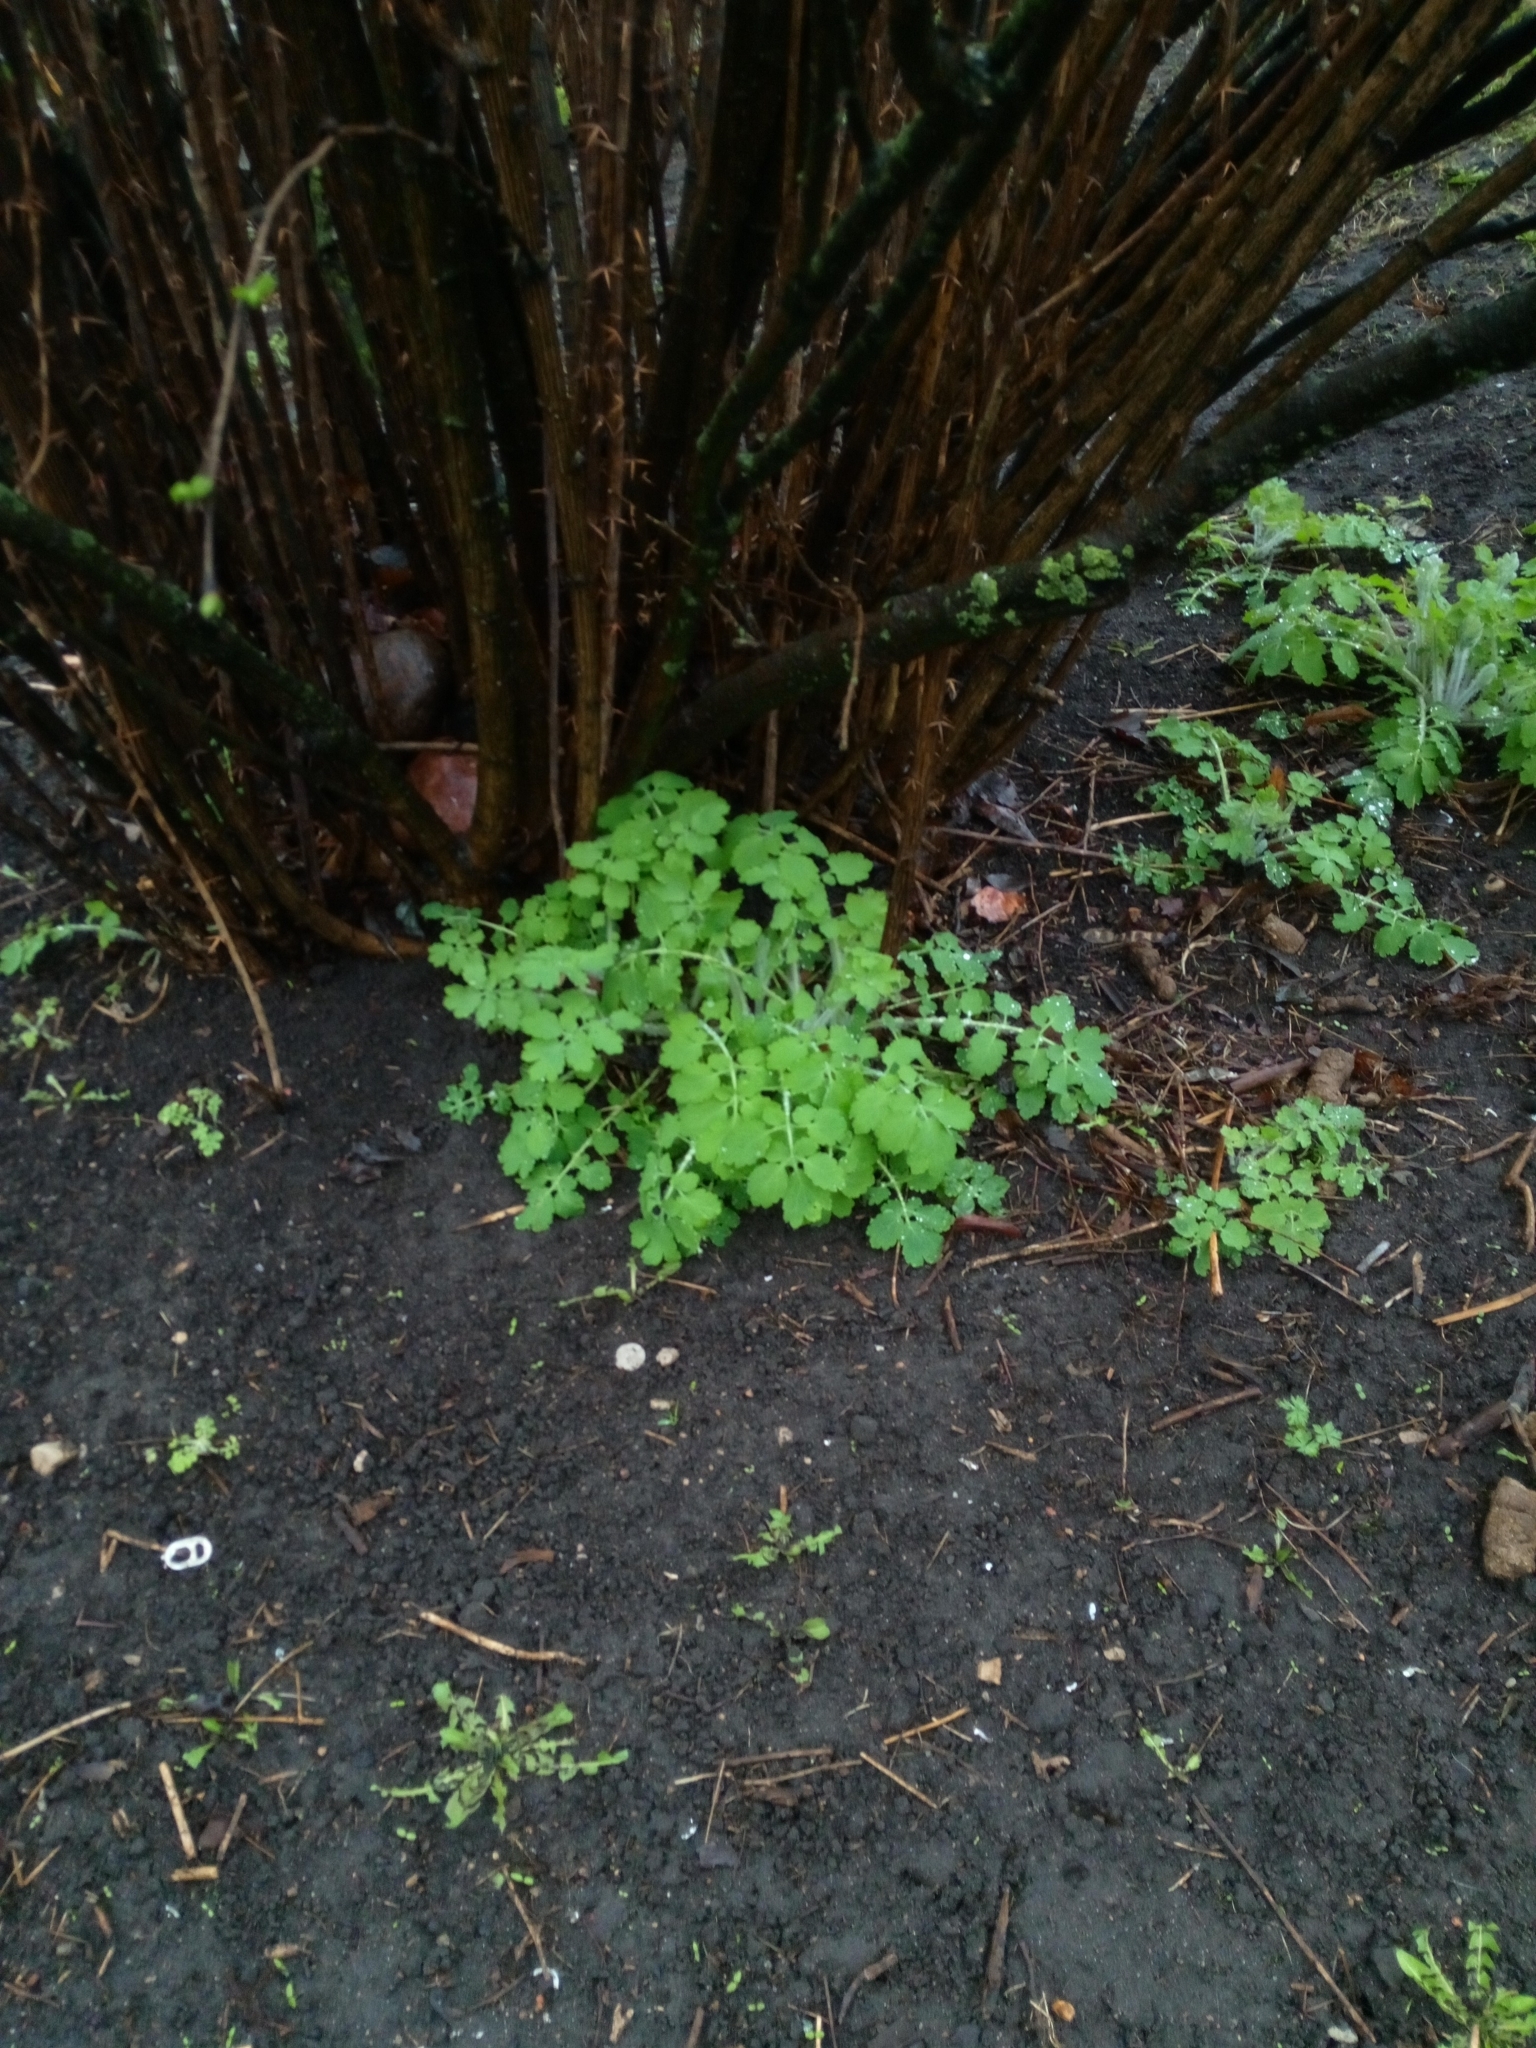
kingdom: Plantae
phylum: Tracheophyta
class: Magnoliopsida
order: Ranunculales
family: Papaveraceae
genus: Chelidonium
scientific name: Chelidonium majus
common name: Greater celandine
